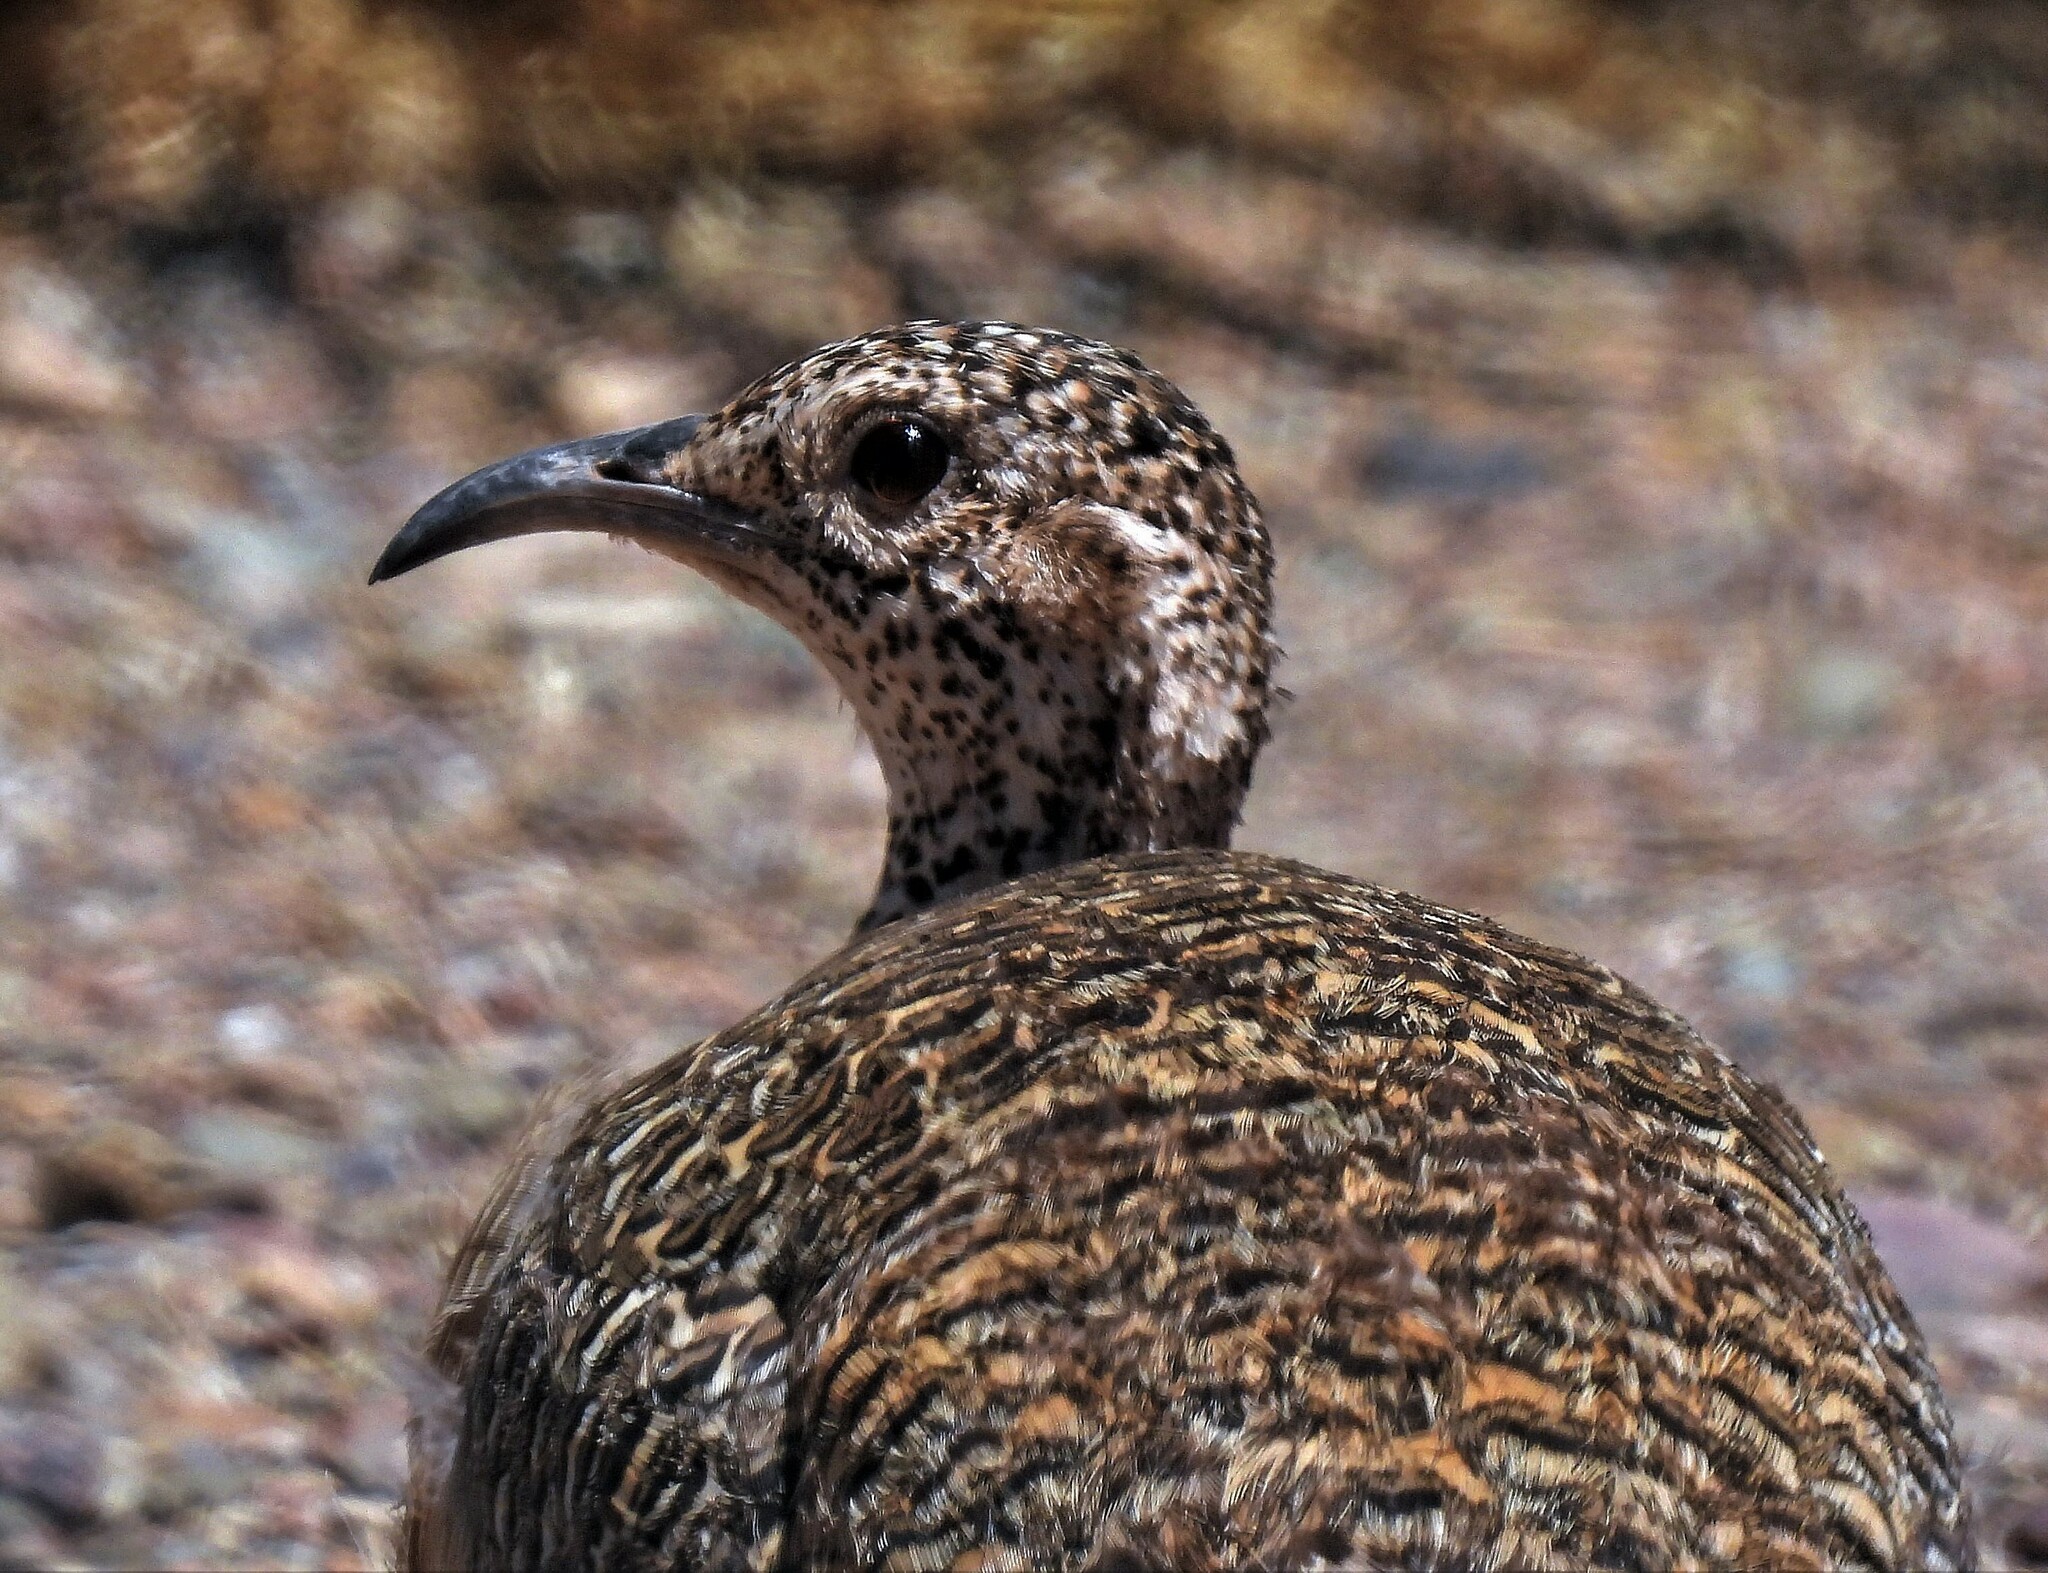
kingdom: Animalia
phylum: Chordata
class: Aves
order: Tinamiformes
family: Tinamidae
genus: Nothoprocta
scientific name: Nothoprocta ornata
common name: Ornate tinamou
